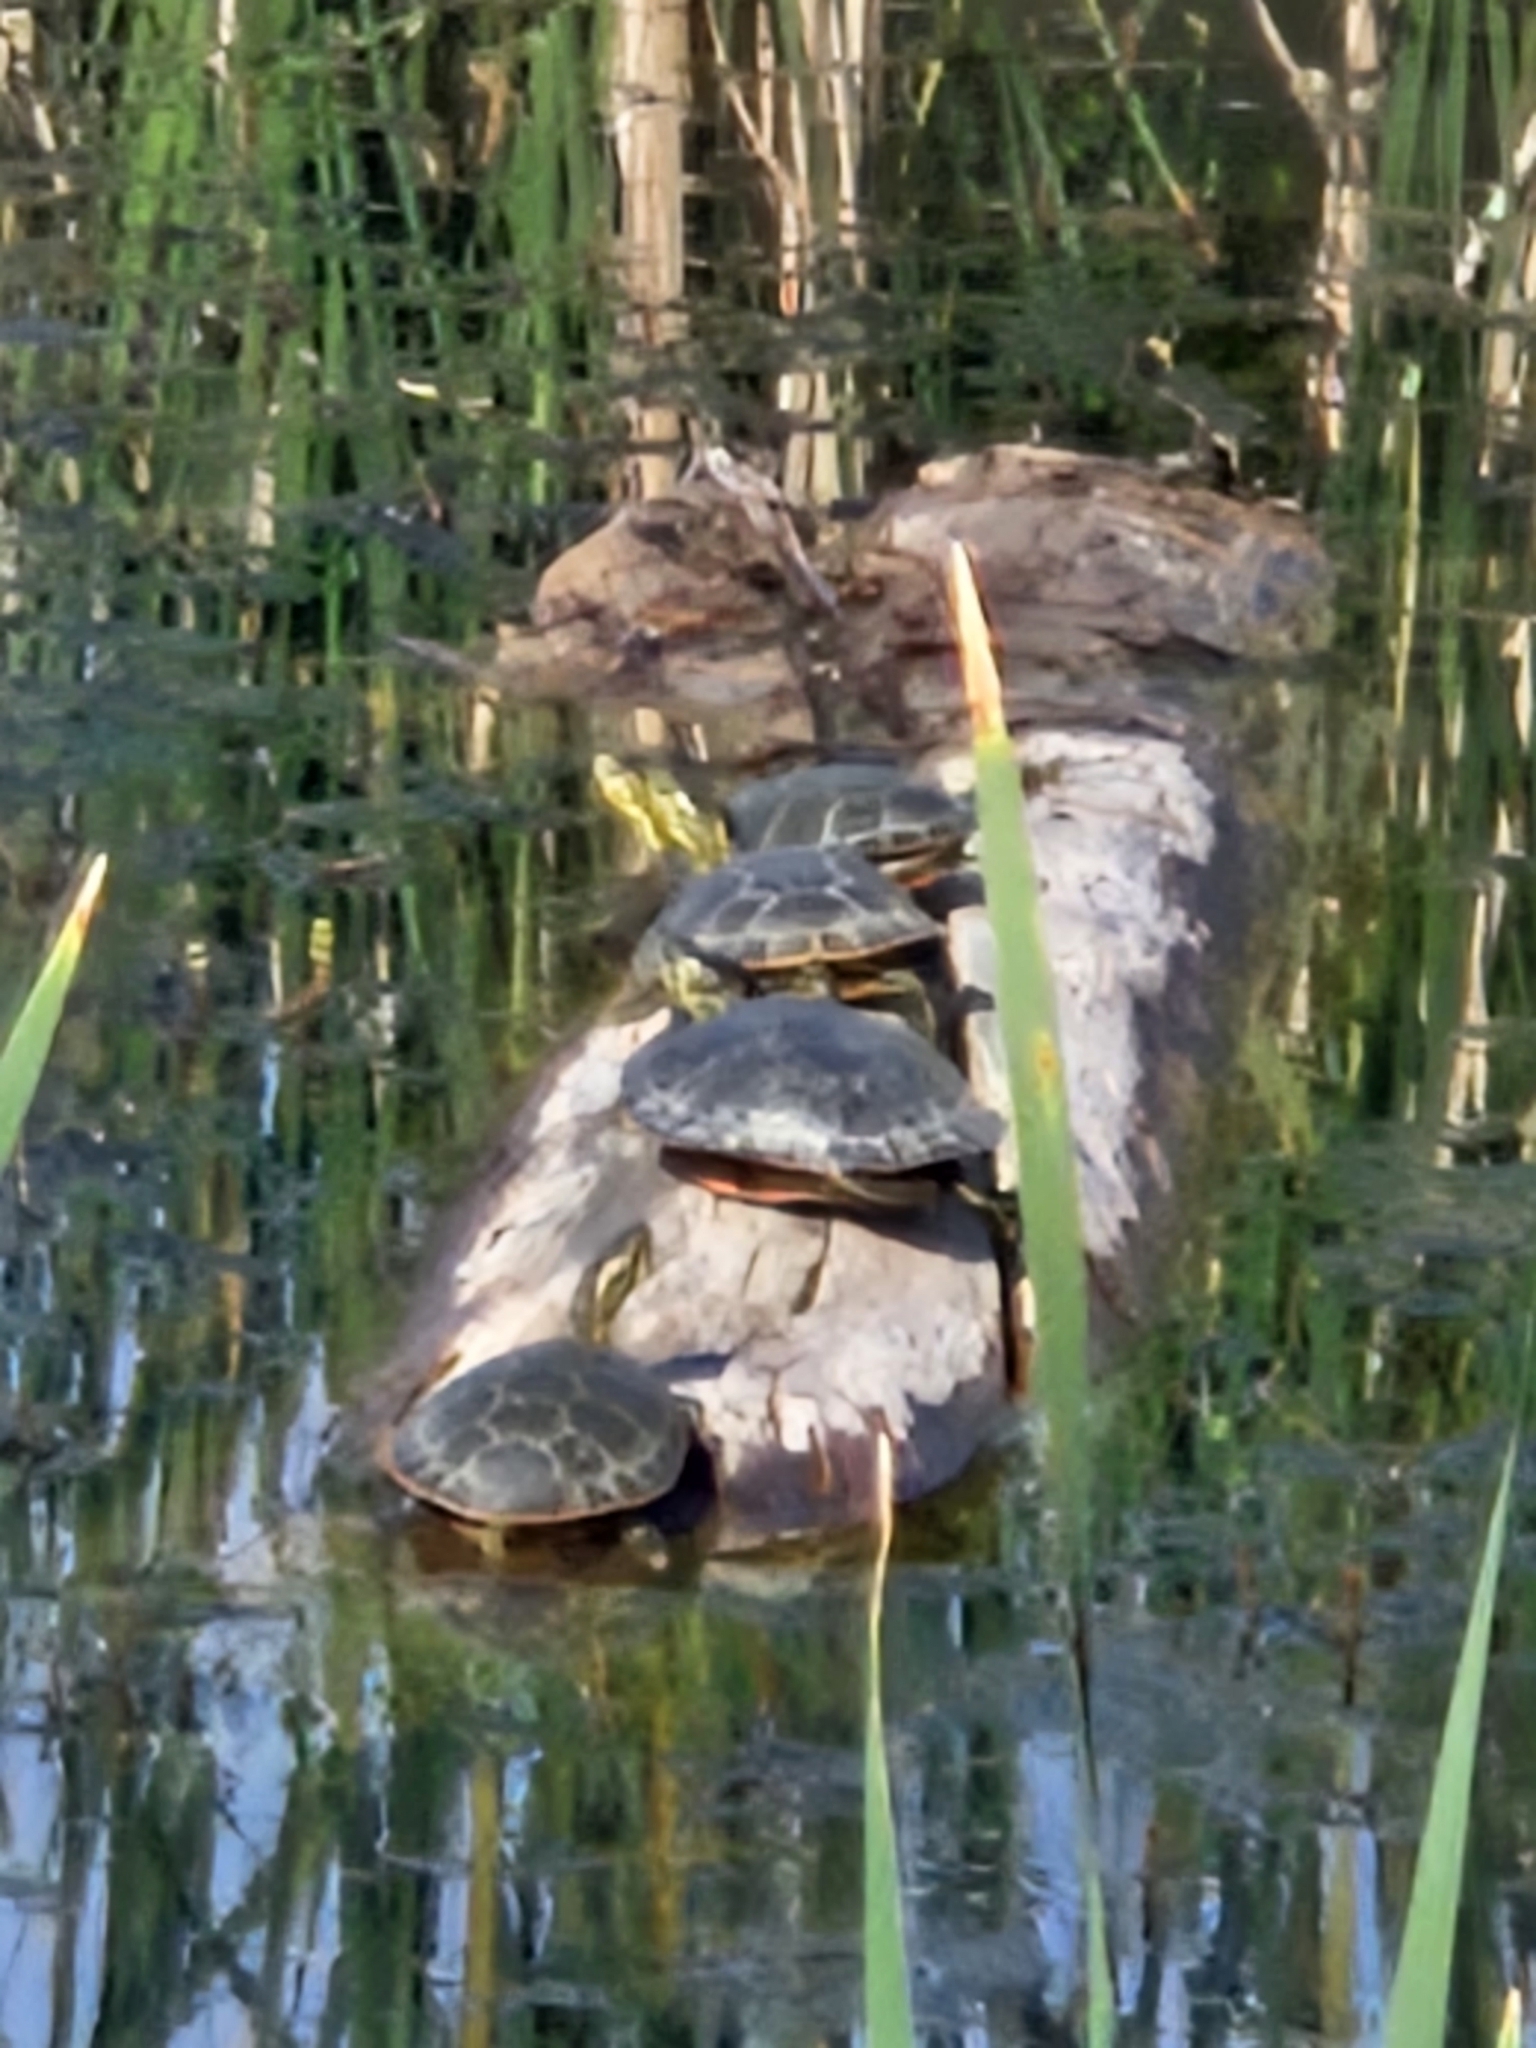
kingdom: Animalia
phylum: Chordata
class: Testudines
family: Emydidae
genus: Chrysemys
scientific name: Chrysemys picta
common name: Painted turtle
